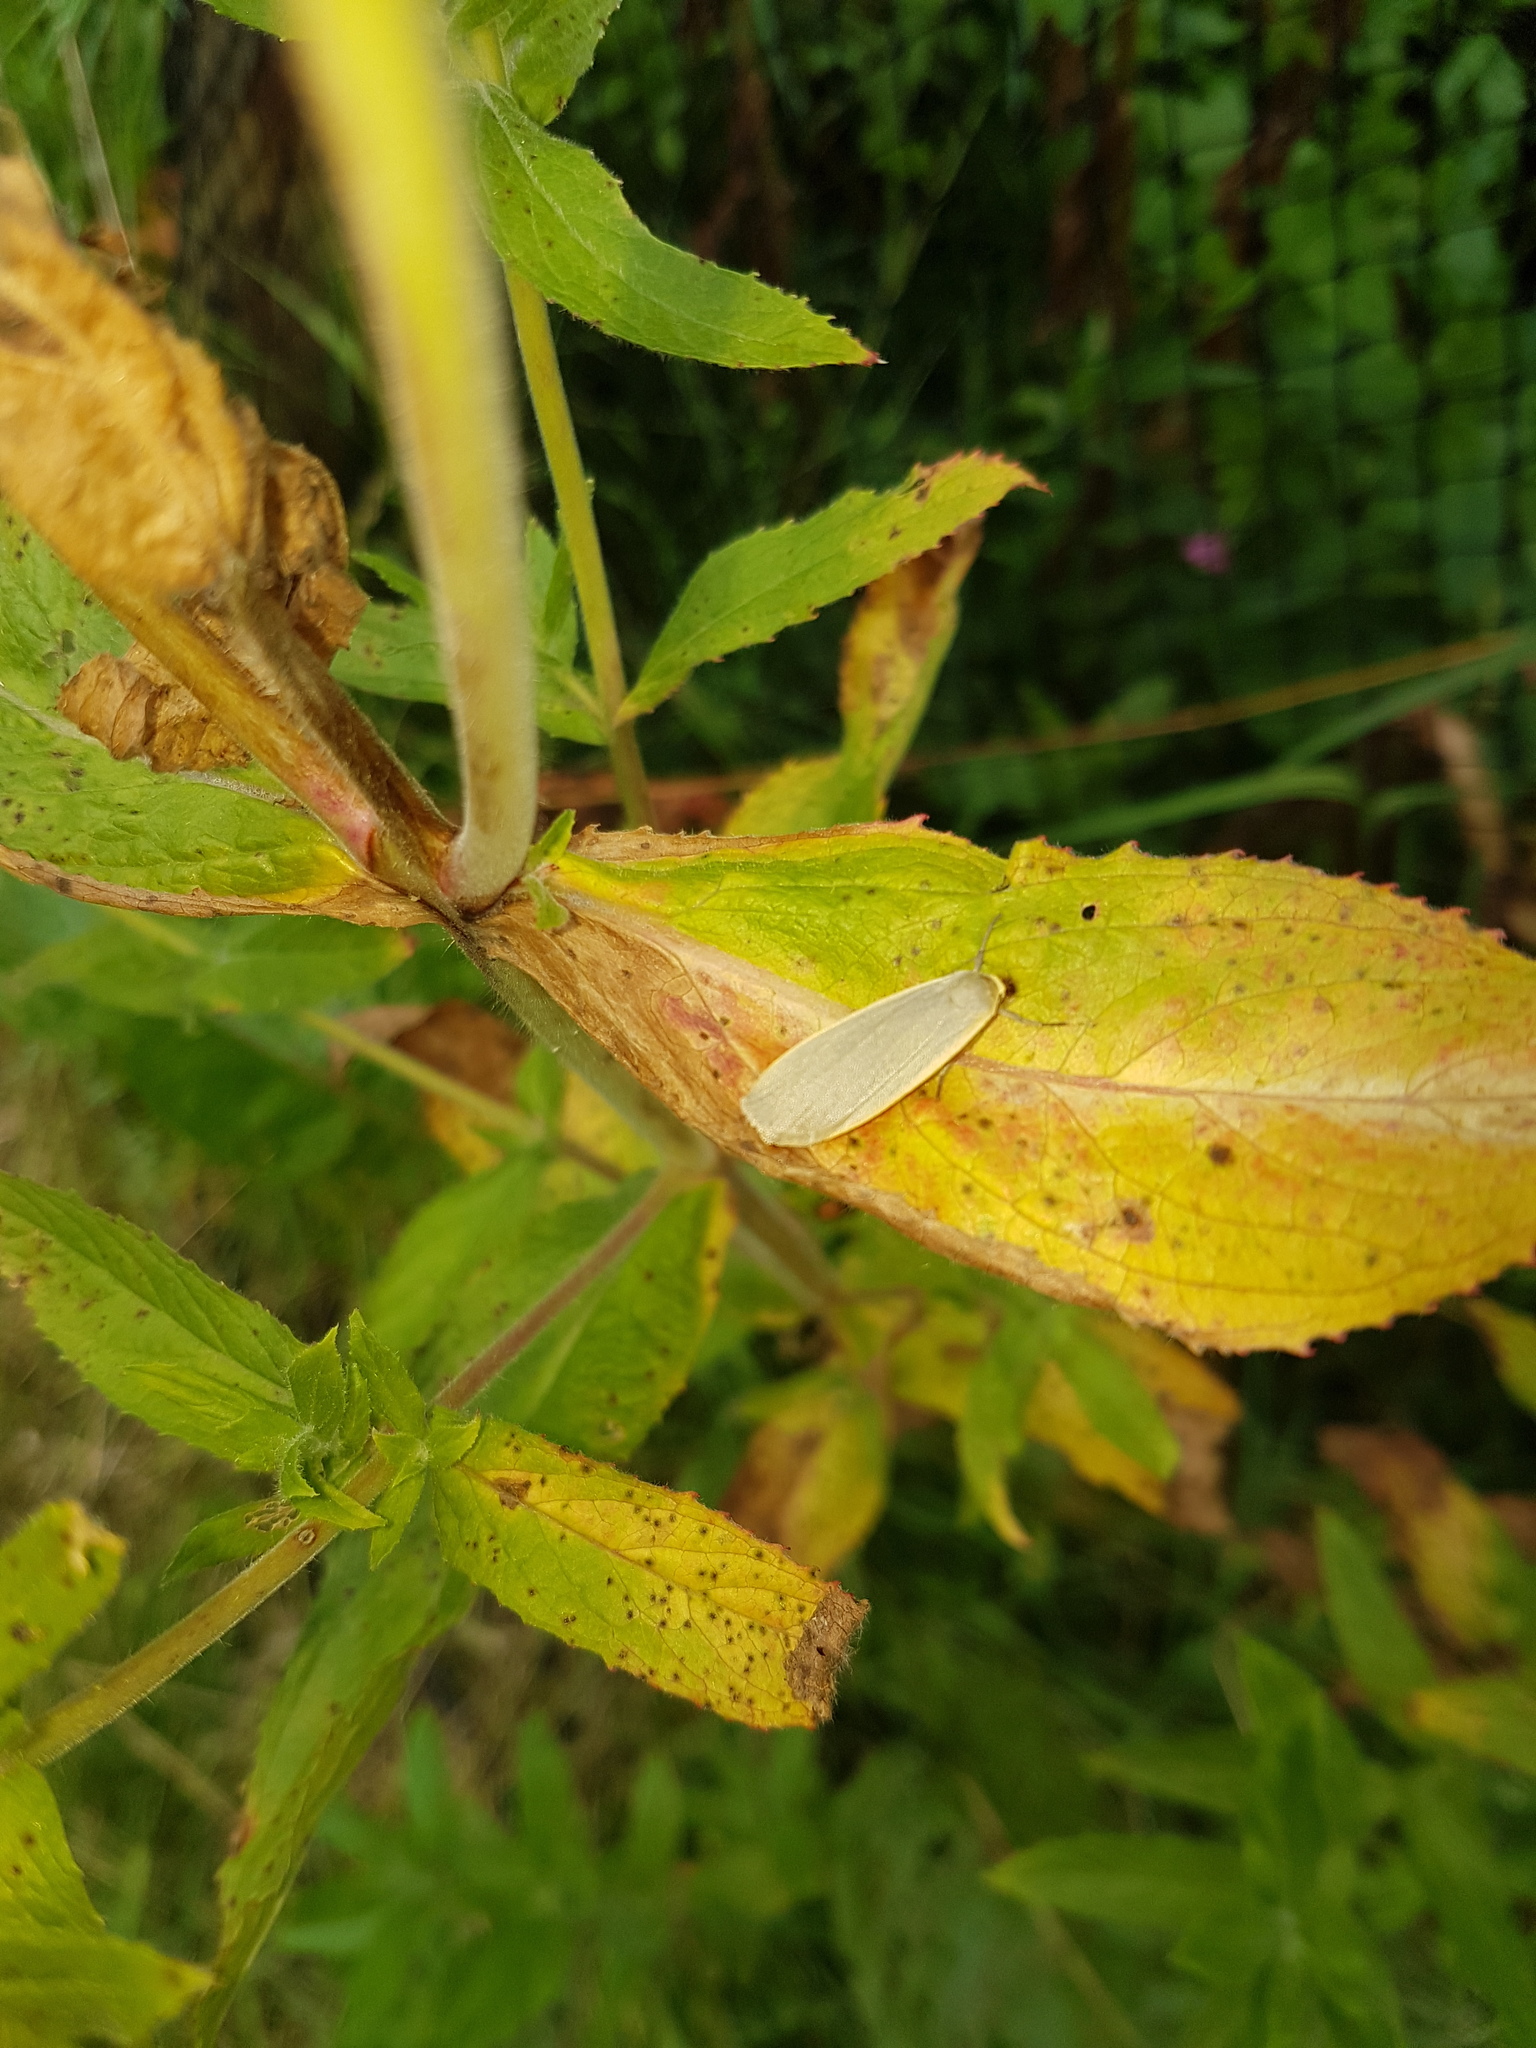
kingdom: Animalia
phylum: Arthropoda
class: Insecta
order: Lepidoptera
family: Erebidae
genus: Collita
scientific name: Collita griseola
